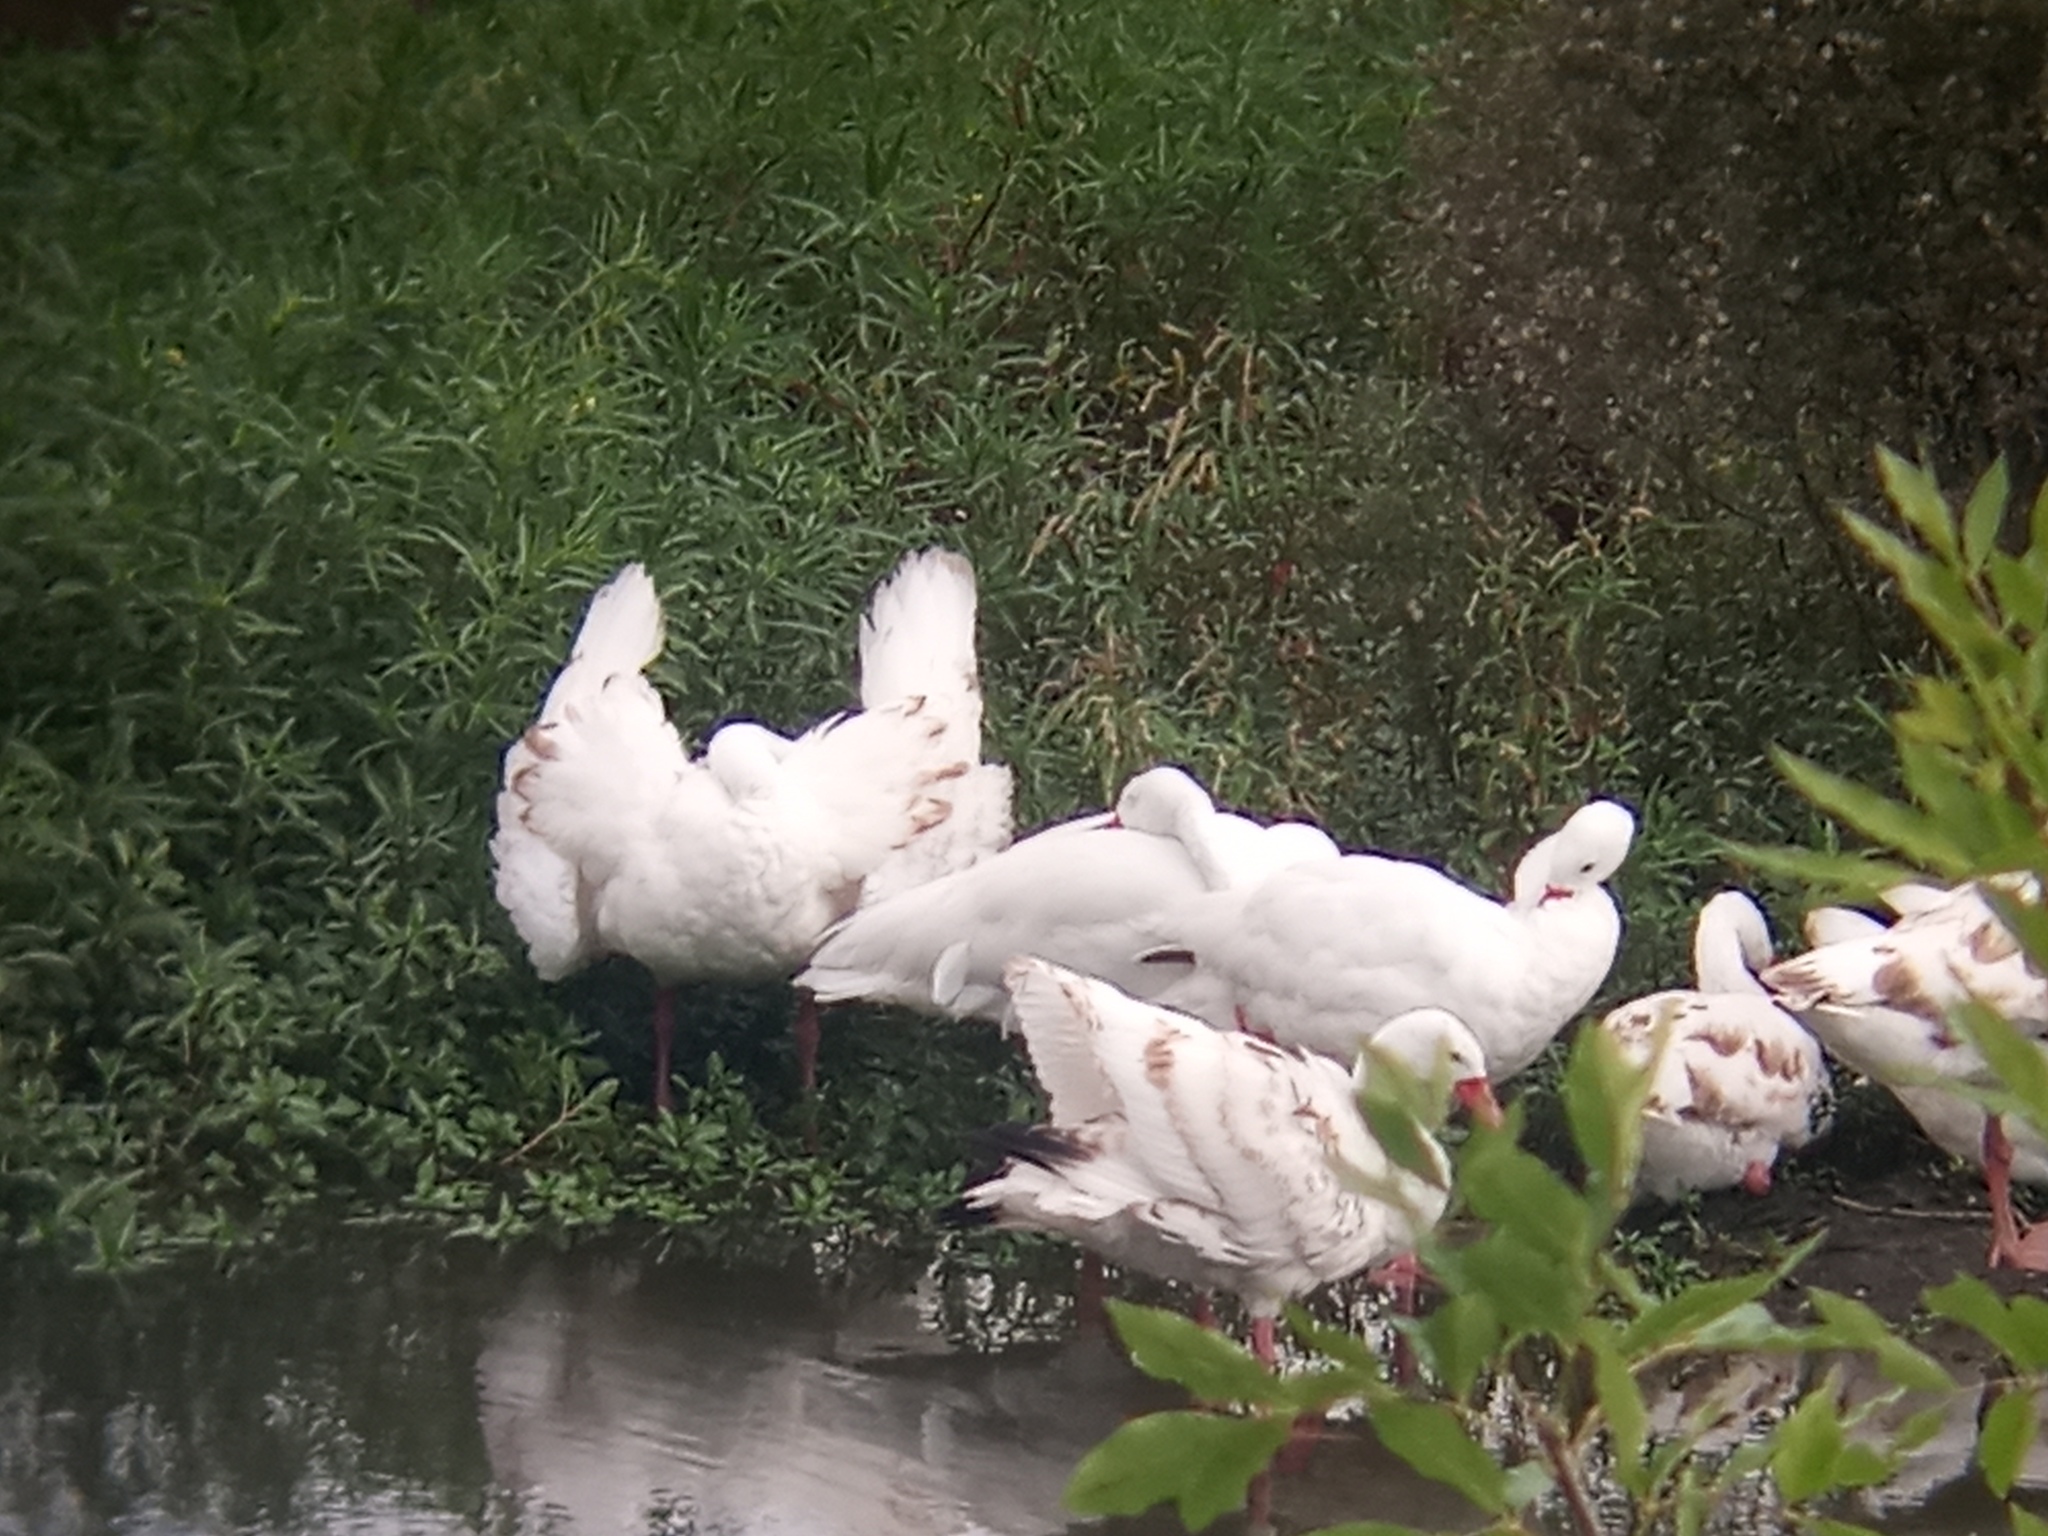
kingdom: Animalia
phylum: Chordata
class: Aves
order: Anseriformes
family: Anatidae
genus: Coscoroba
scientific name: Coscoroba coscoroba
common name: Coscoroba swan
